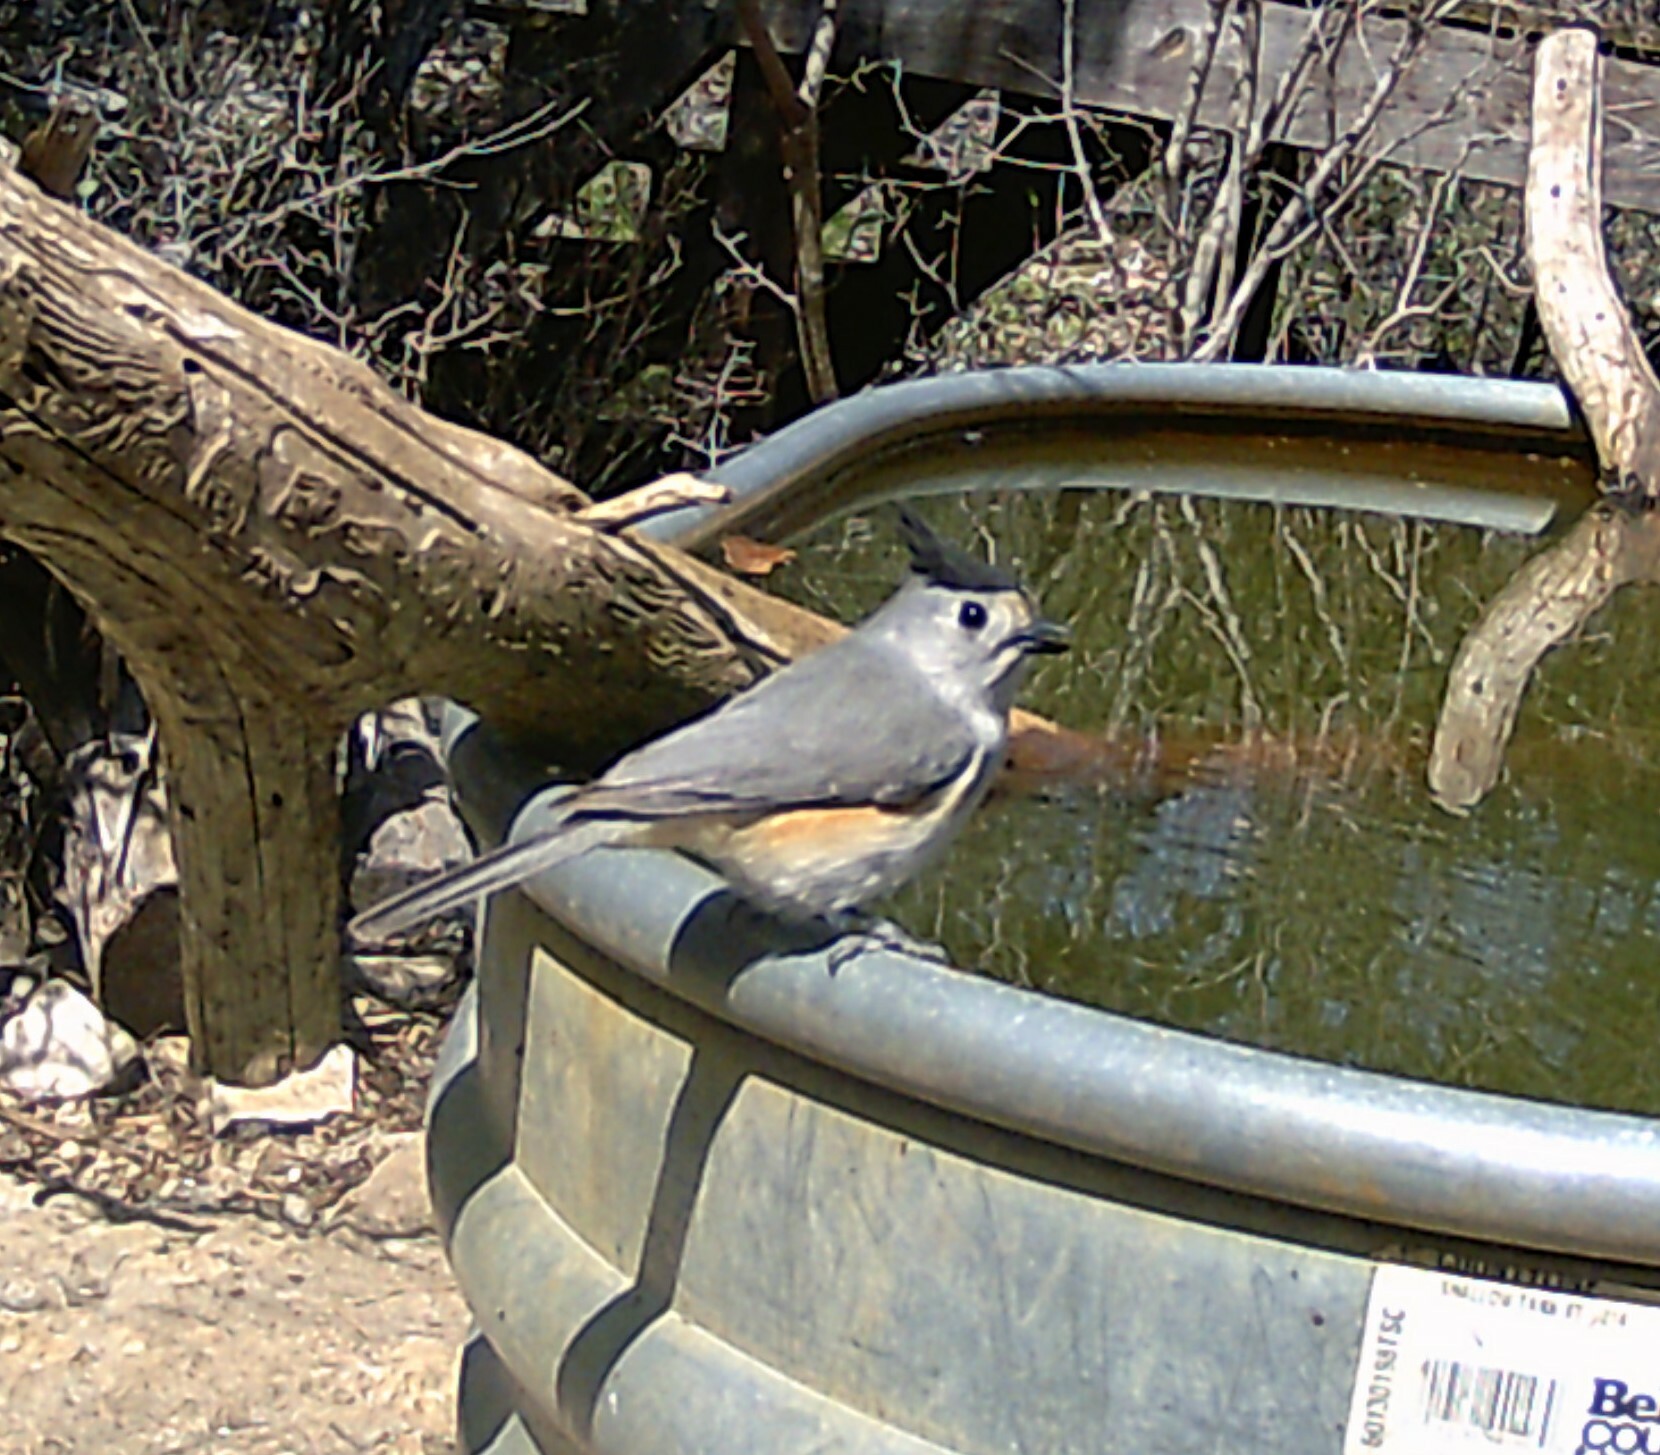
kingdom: Animalia
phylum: Chordata
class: Aves
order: Passeriformes
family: Paridae
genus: Baeolophus
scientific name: Baeolophus atricristatus
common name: Black-crested titmouse
